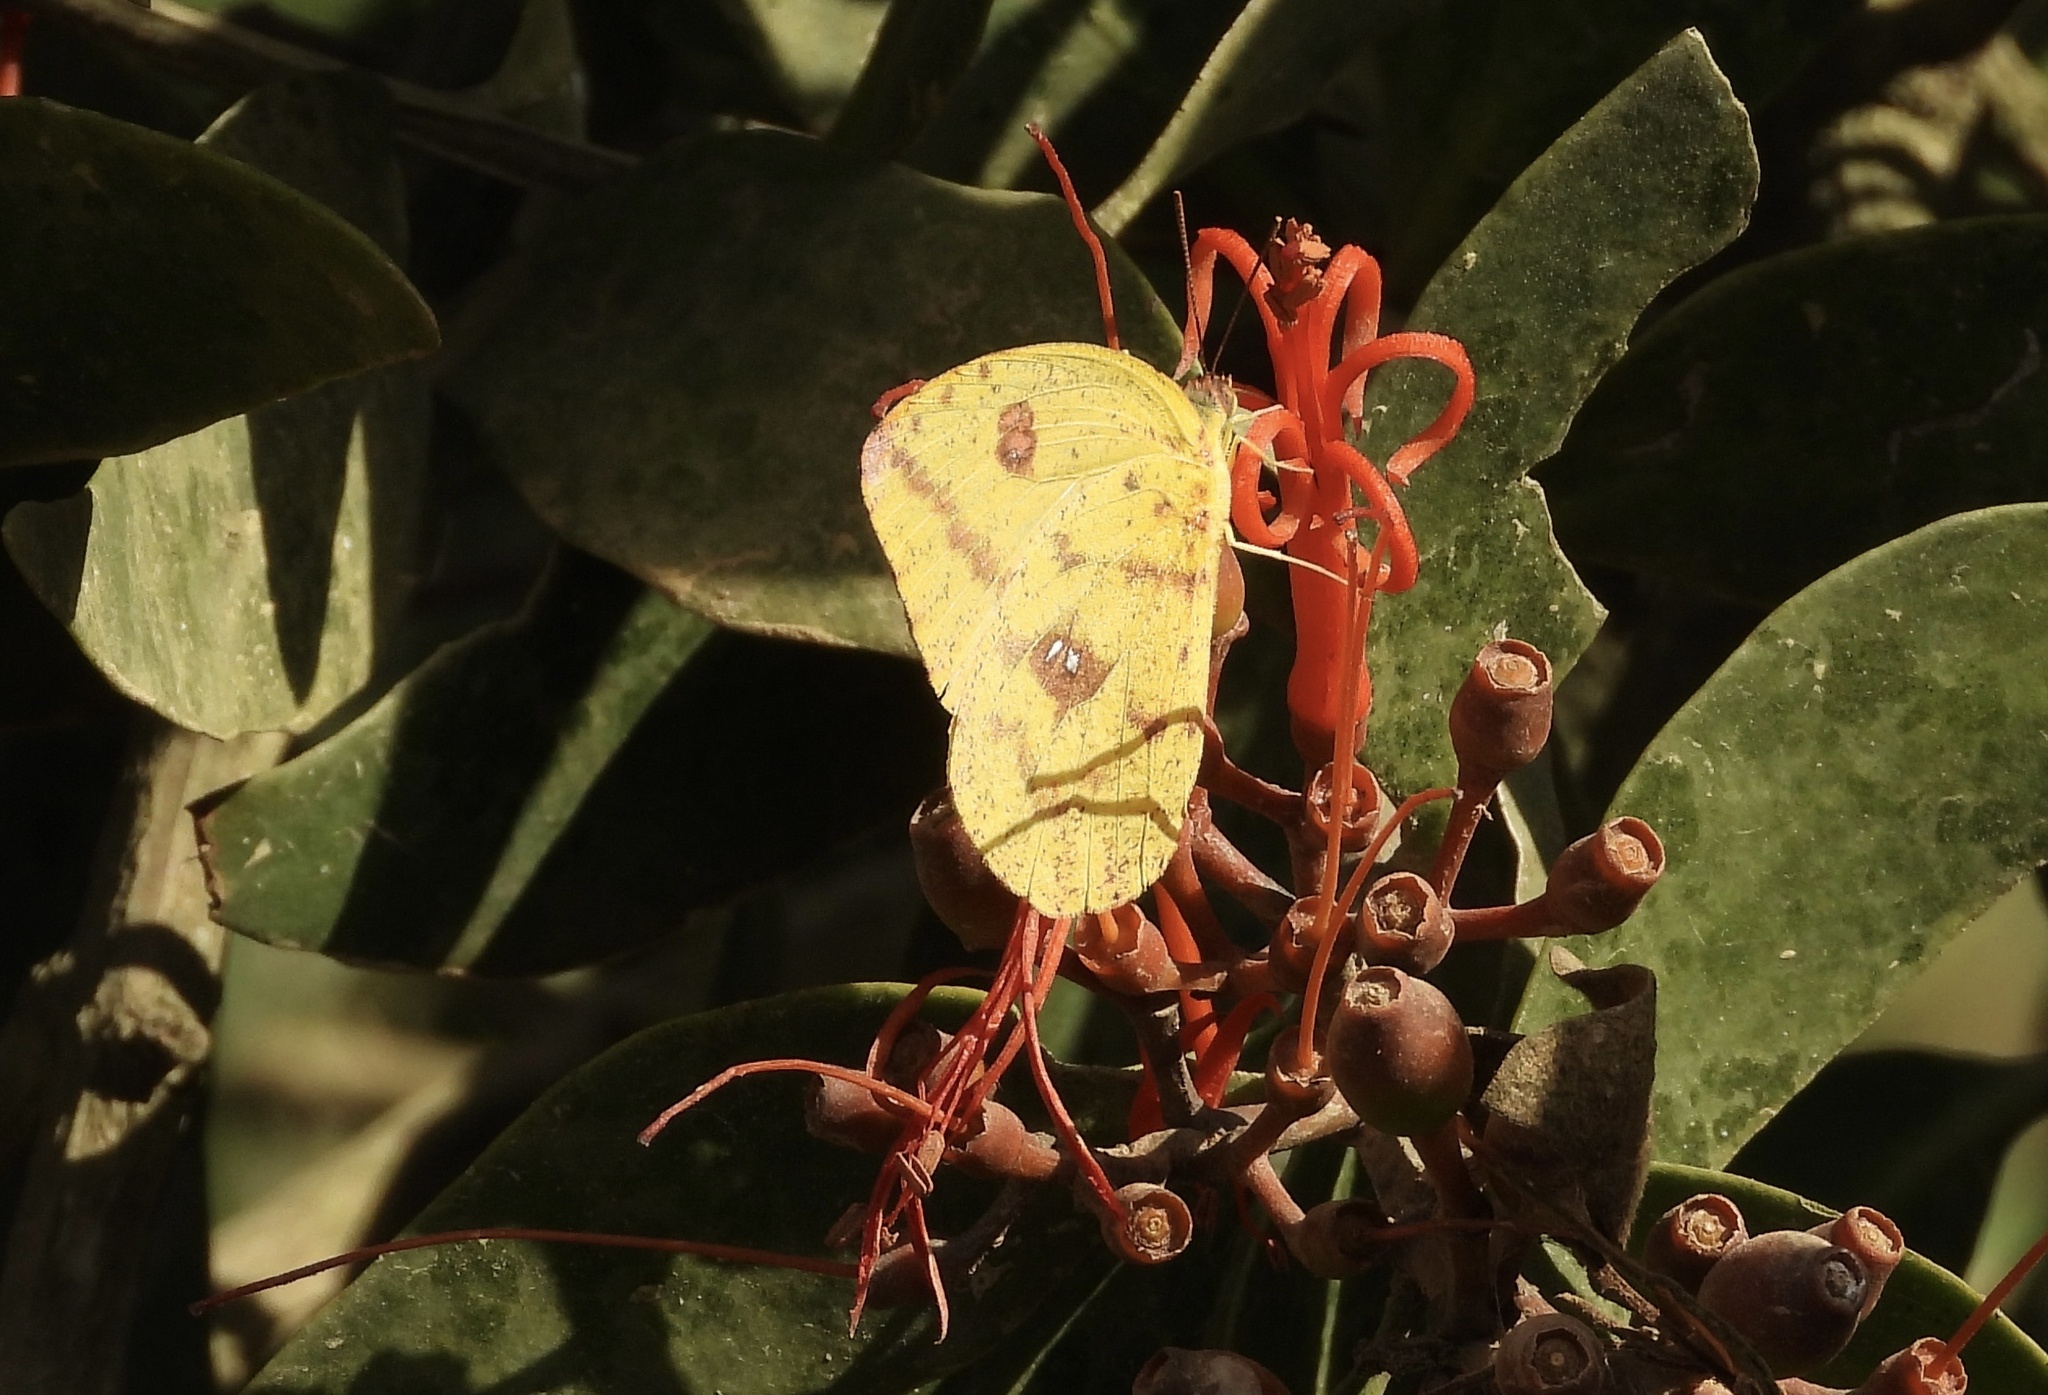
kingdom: Animalia
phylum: Arthropoda
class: Insecta
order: Lepidoptera
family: Pieridae
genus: Phoebis
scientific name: Phoebis agarithe
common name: Large orange sulphur
